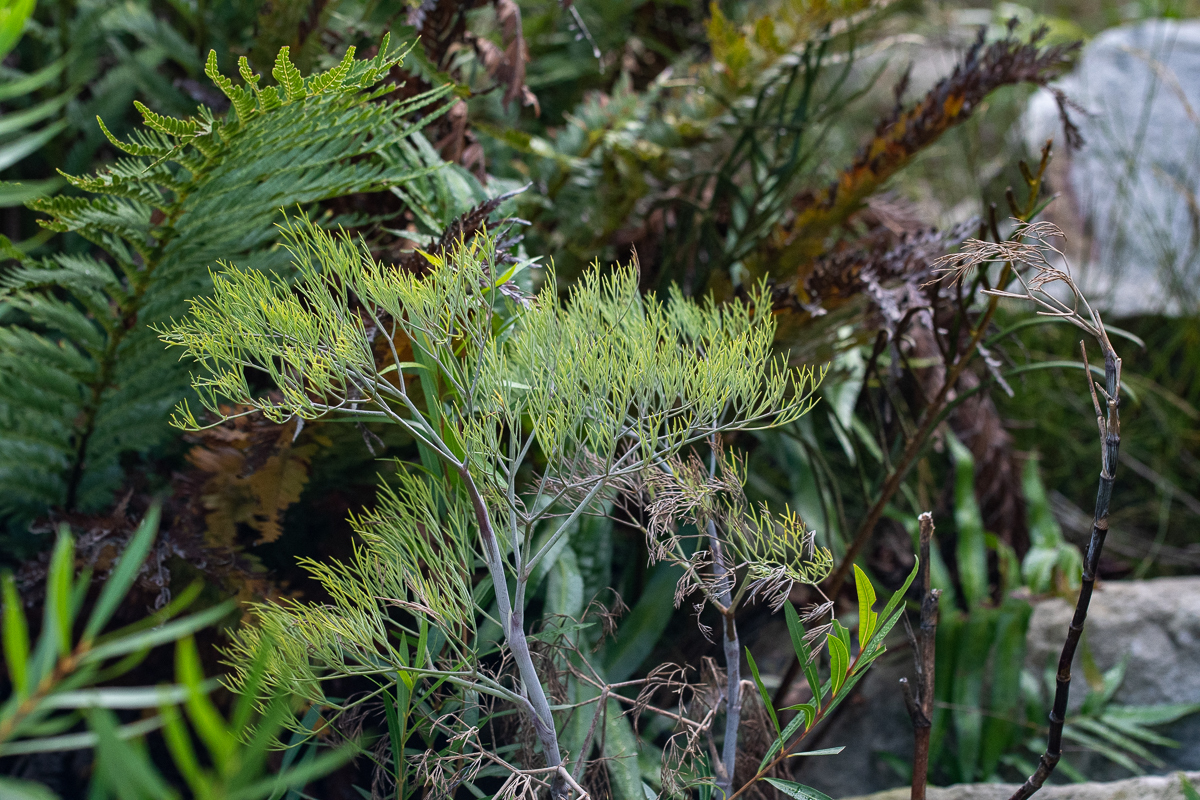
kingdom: Plantae
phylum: Tracheophyta
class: Magnoliopsida
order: Apiales
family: Apiaceae
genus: Notobubon
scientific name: Notobubon capense
